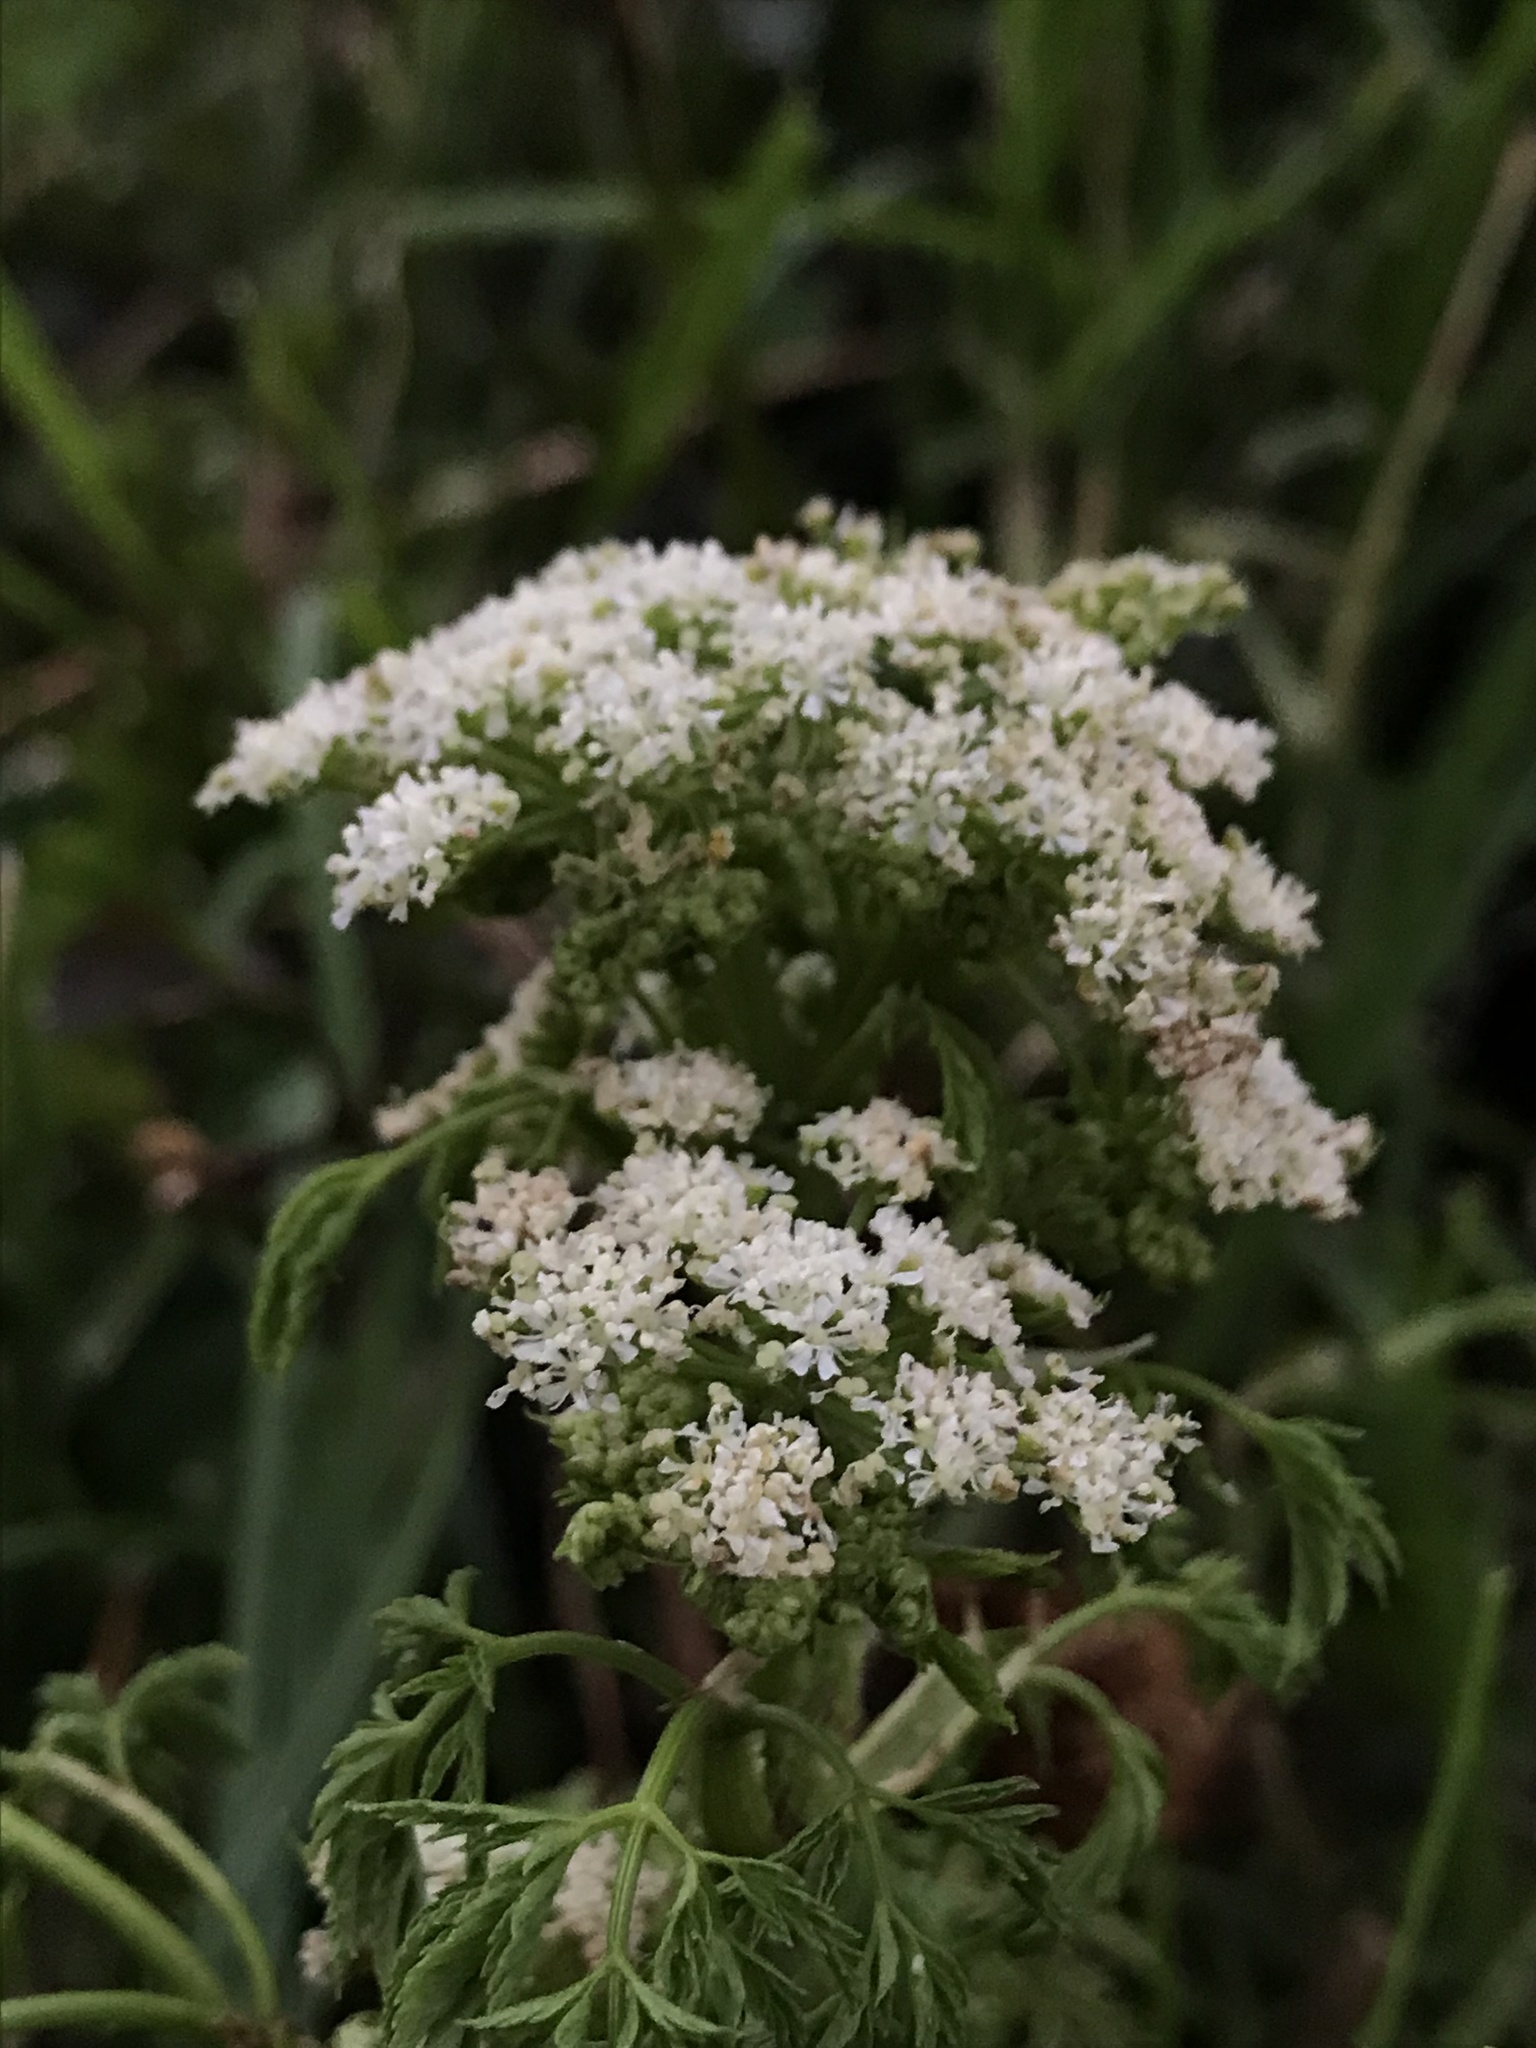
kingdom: Plantae
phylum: Tracheophyta
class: Magnoliopsida
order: Apiales
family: Apiaceae
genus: Conium
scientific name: Conium maculatum
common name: Hemlock
